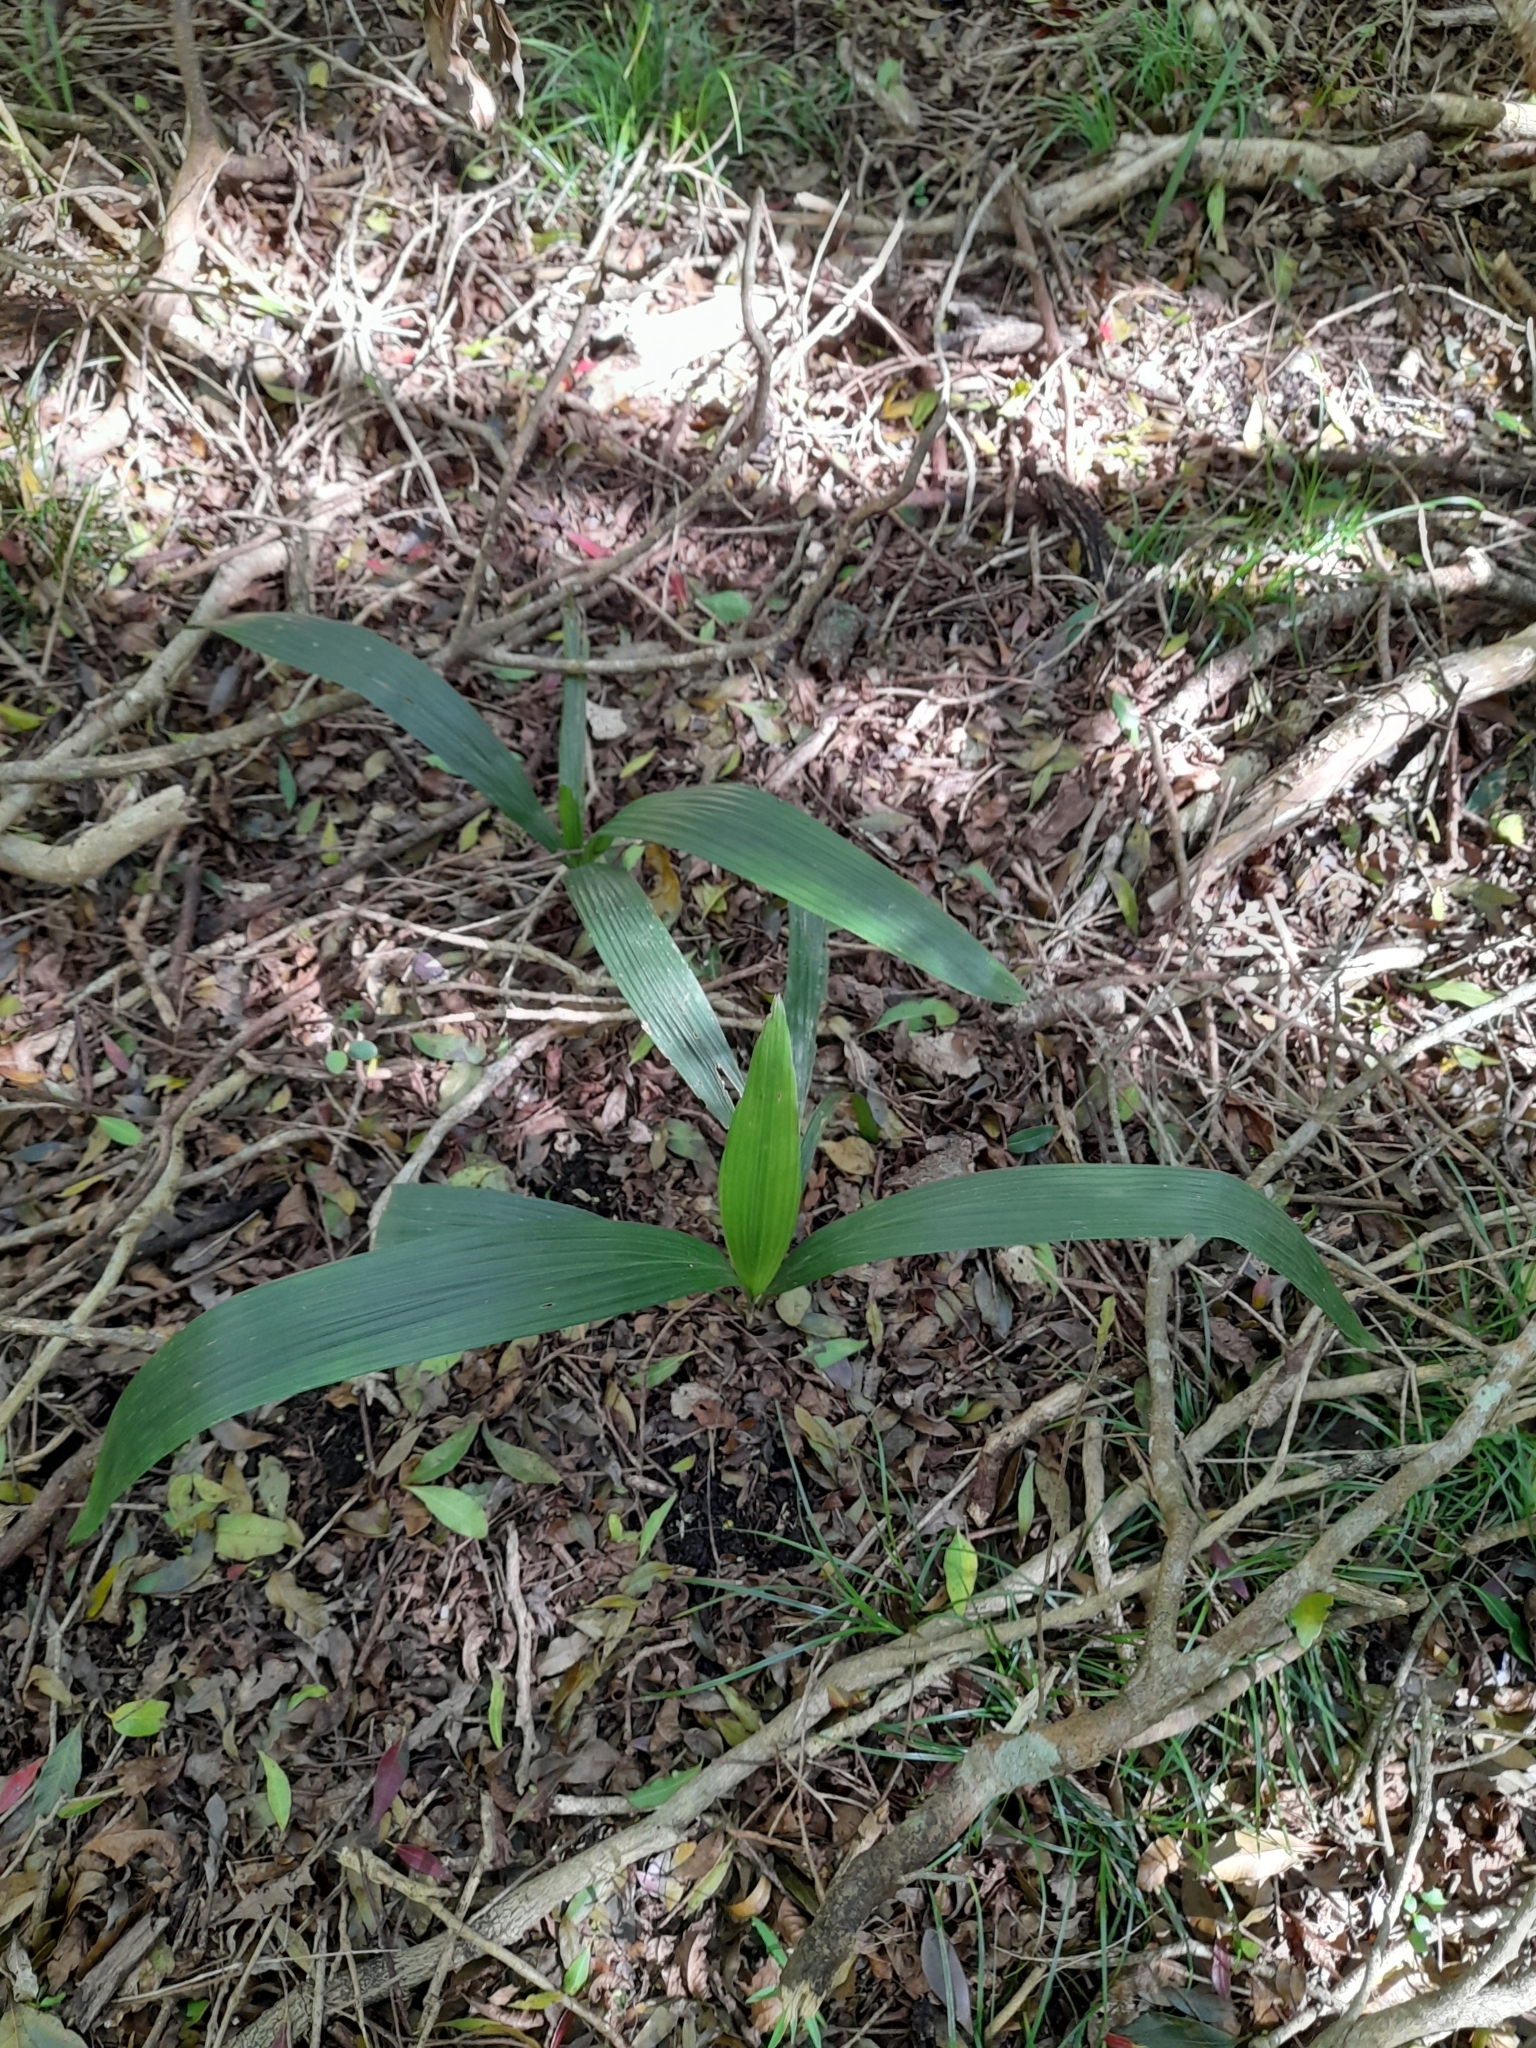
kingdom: Plantae
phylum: Tracheophyta
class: Liliopsida
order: Arecales
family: Arecaceae
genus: Syagrus
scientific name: Syagrus romanzoffiana
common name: Queen palm
